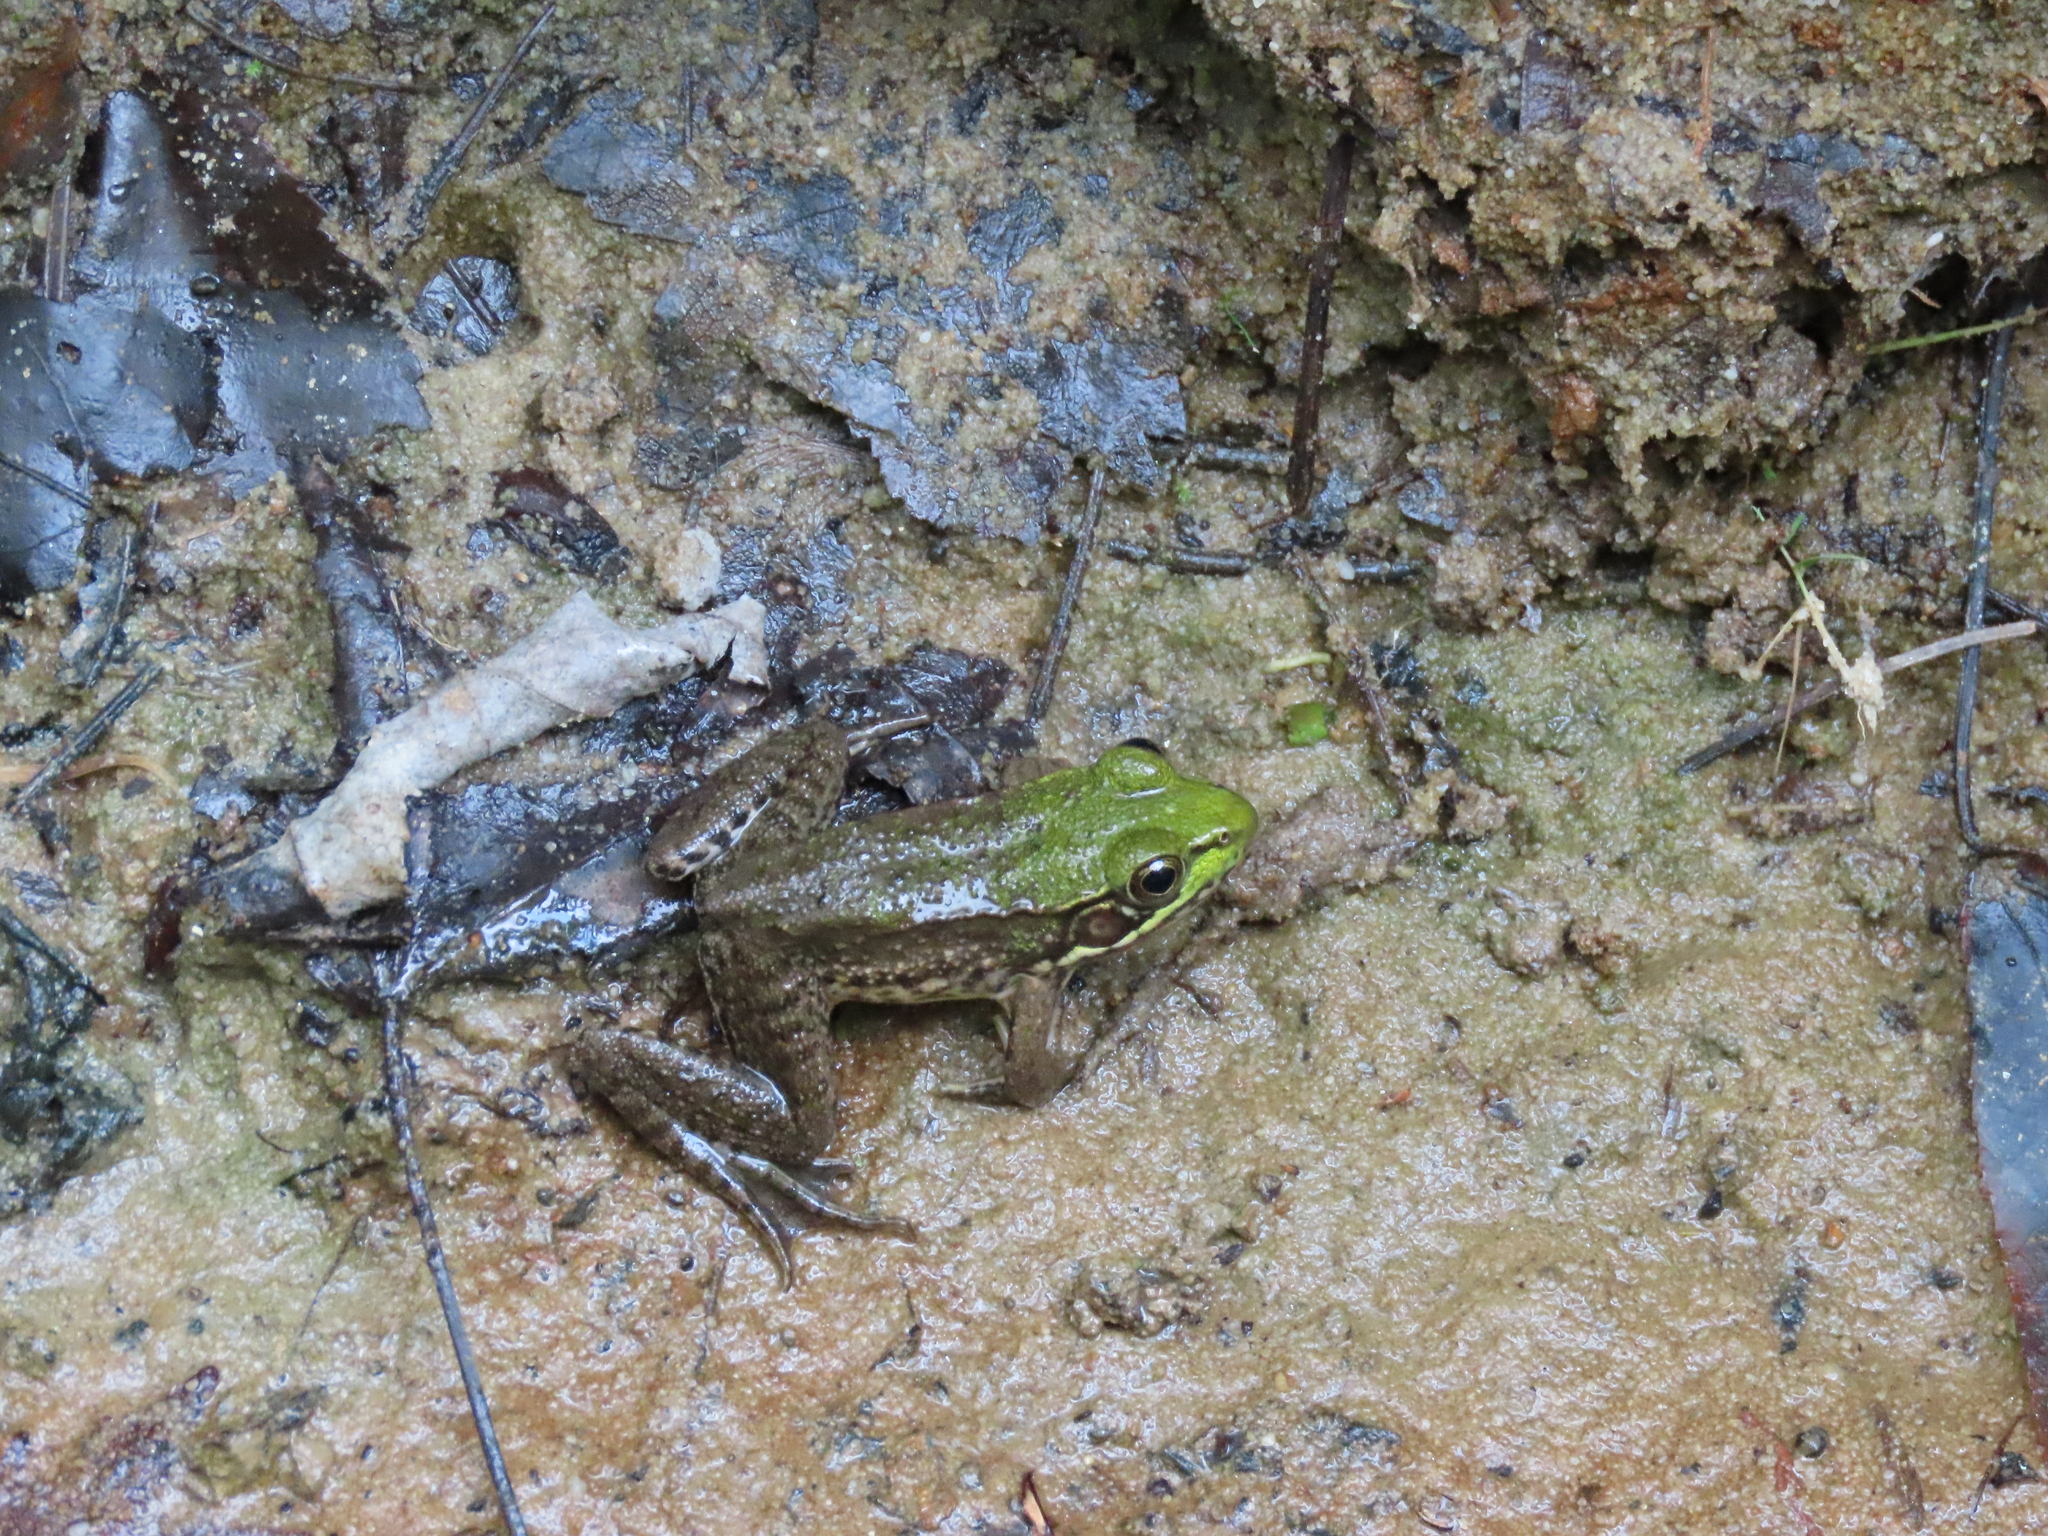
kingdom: Animalia
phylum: Chordata
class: Amphibia
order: Anura
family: Ranidae
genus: Lithobates
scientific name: Lithobates clamitans
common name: Green frog
